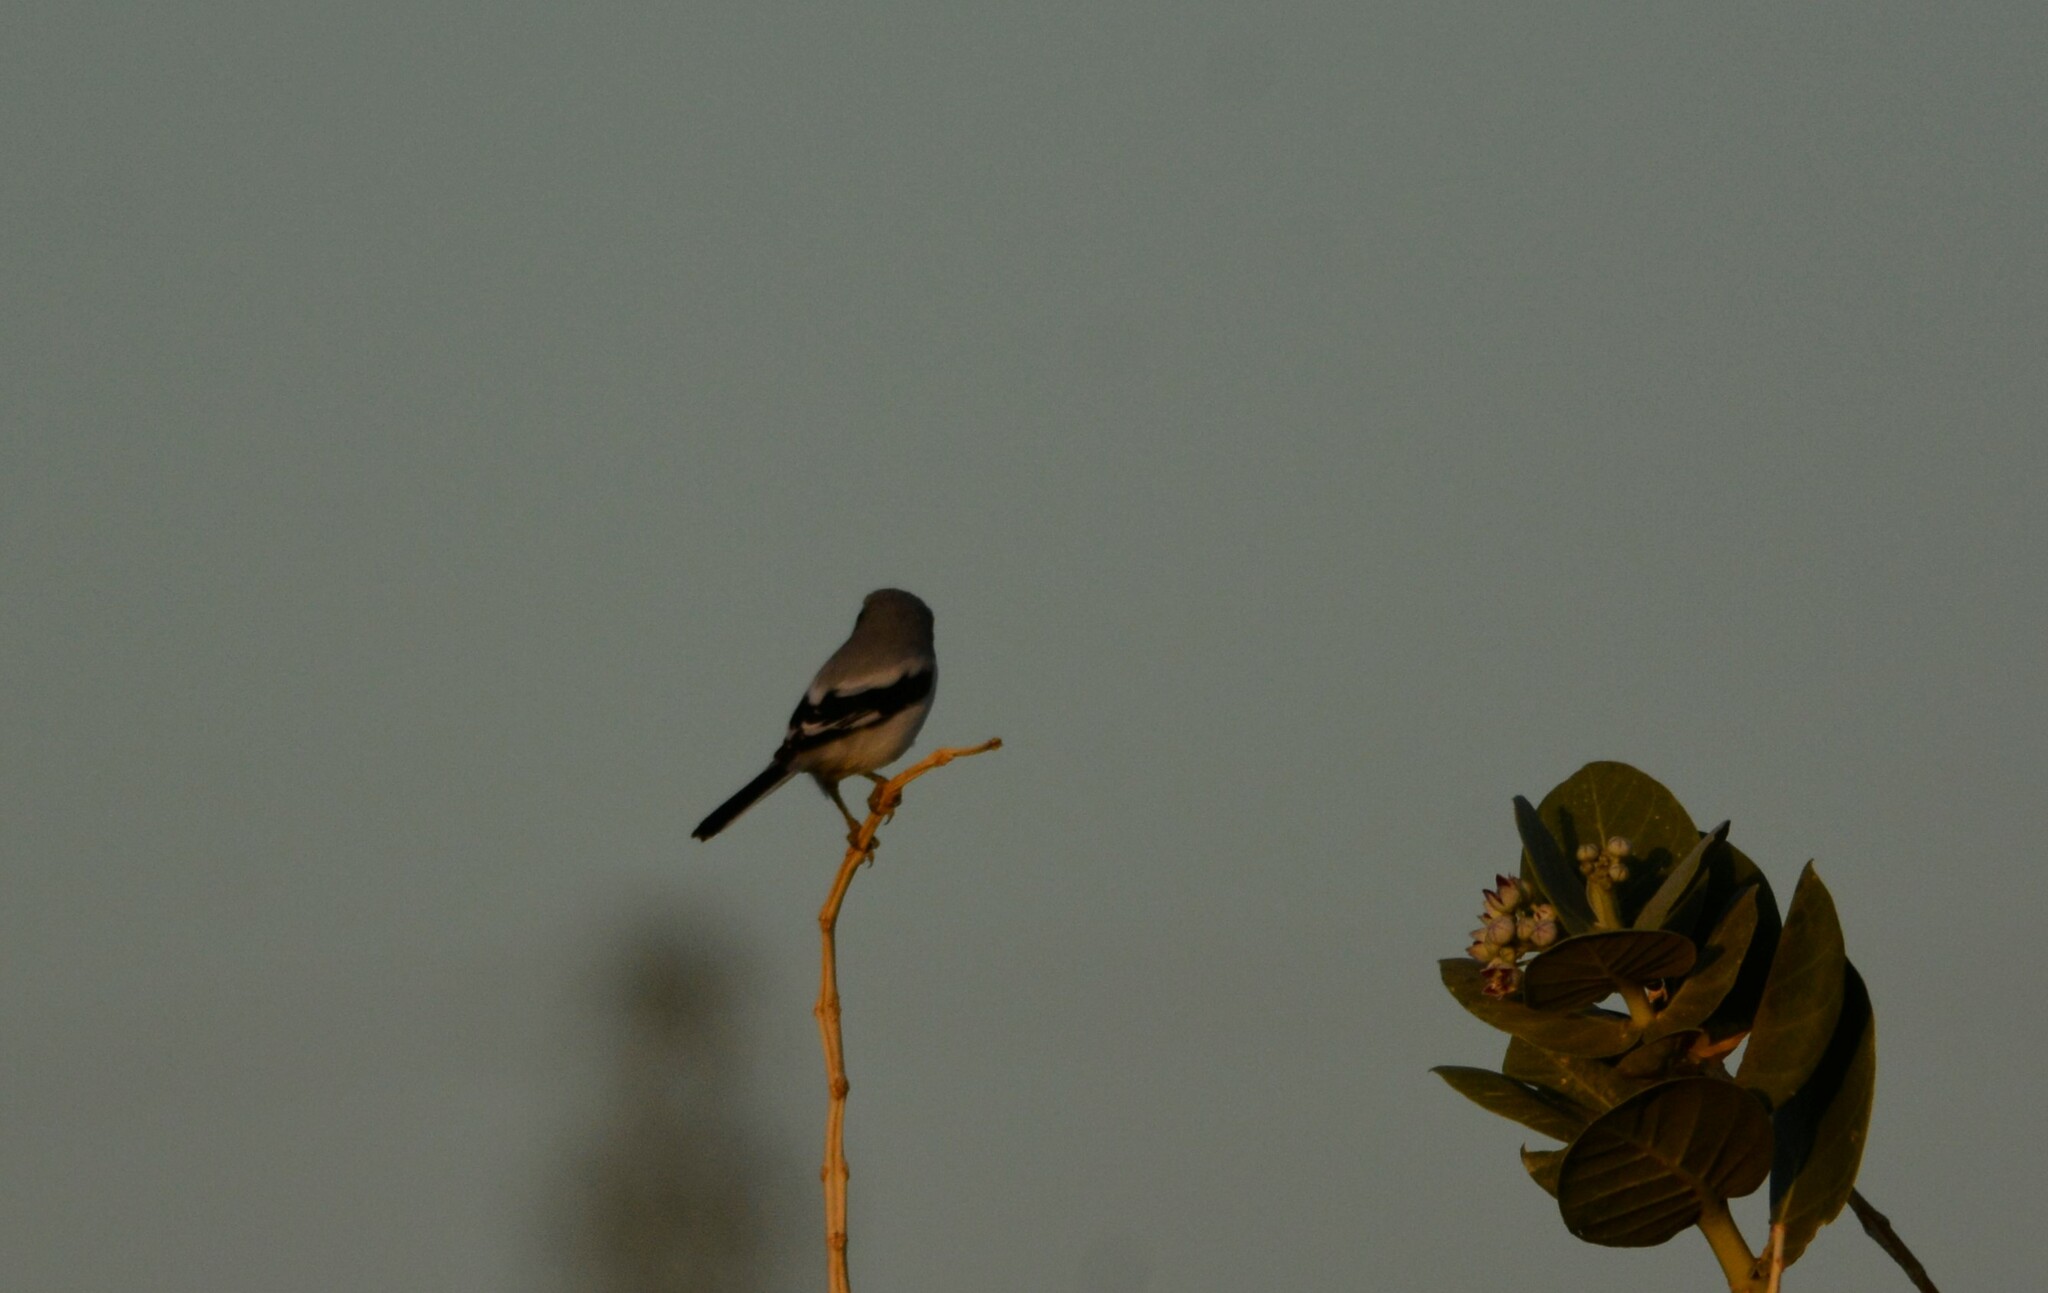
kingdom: Animalia
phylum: Chordata
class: Aves
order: Passeriformes
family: Laniidae
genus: Lanius
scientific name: Lanius excubitor
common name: Great grey shrike
